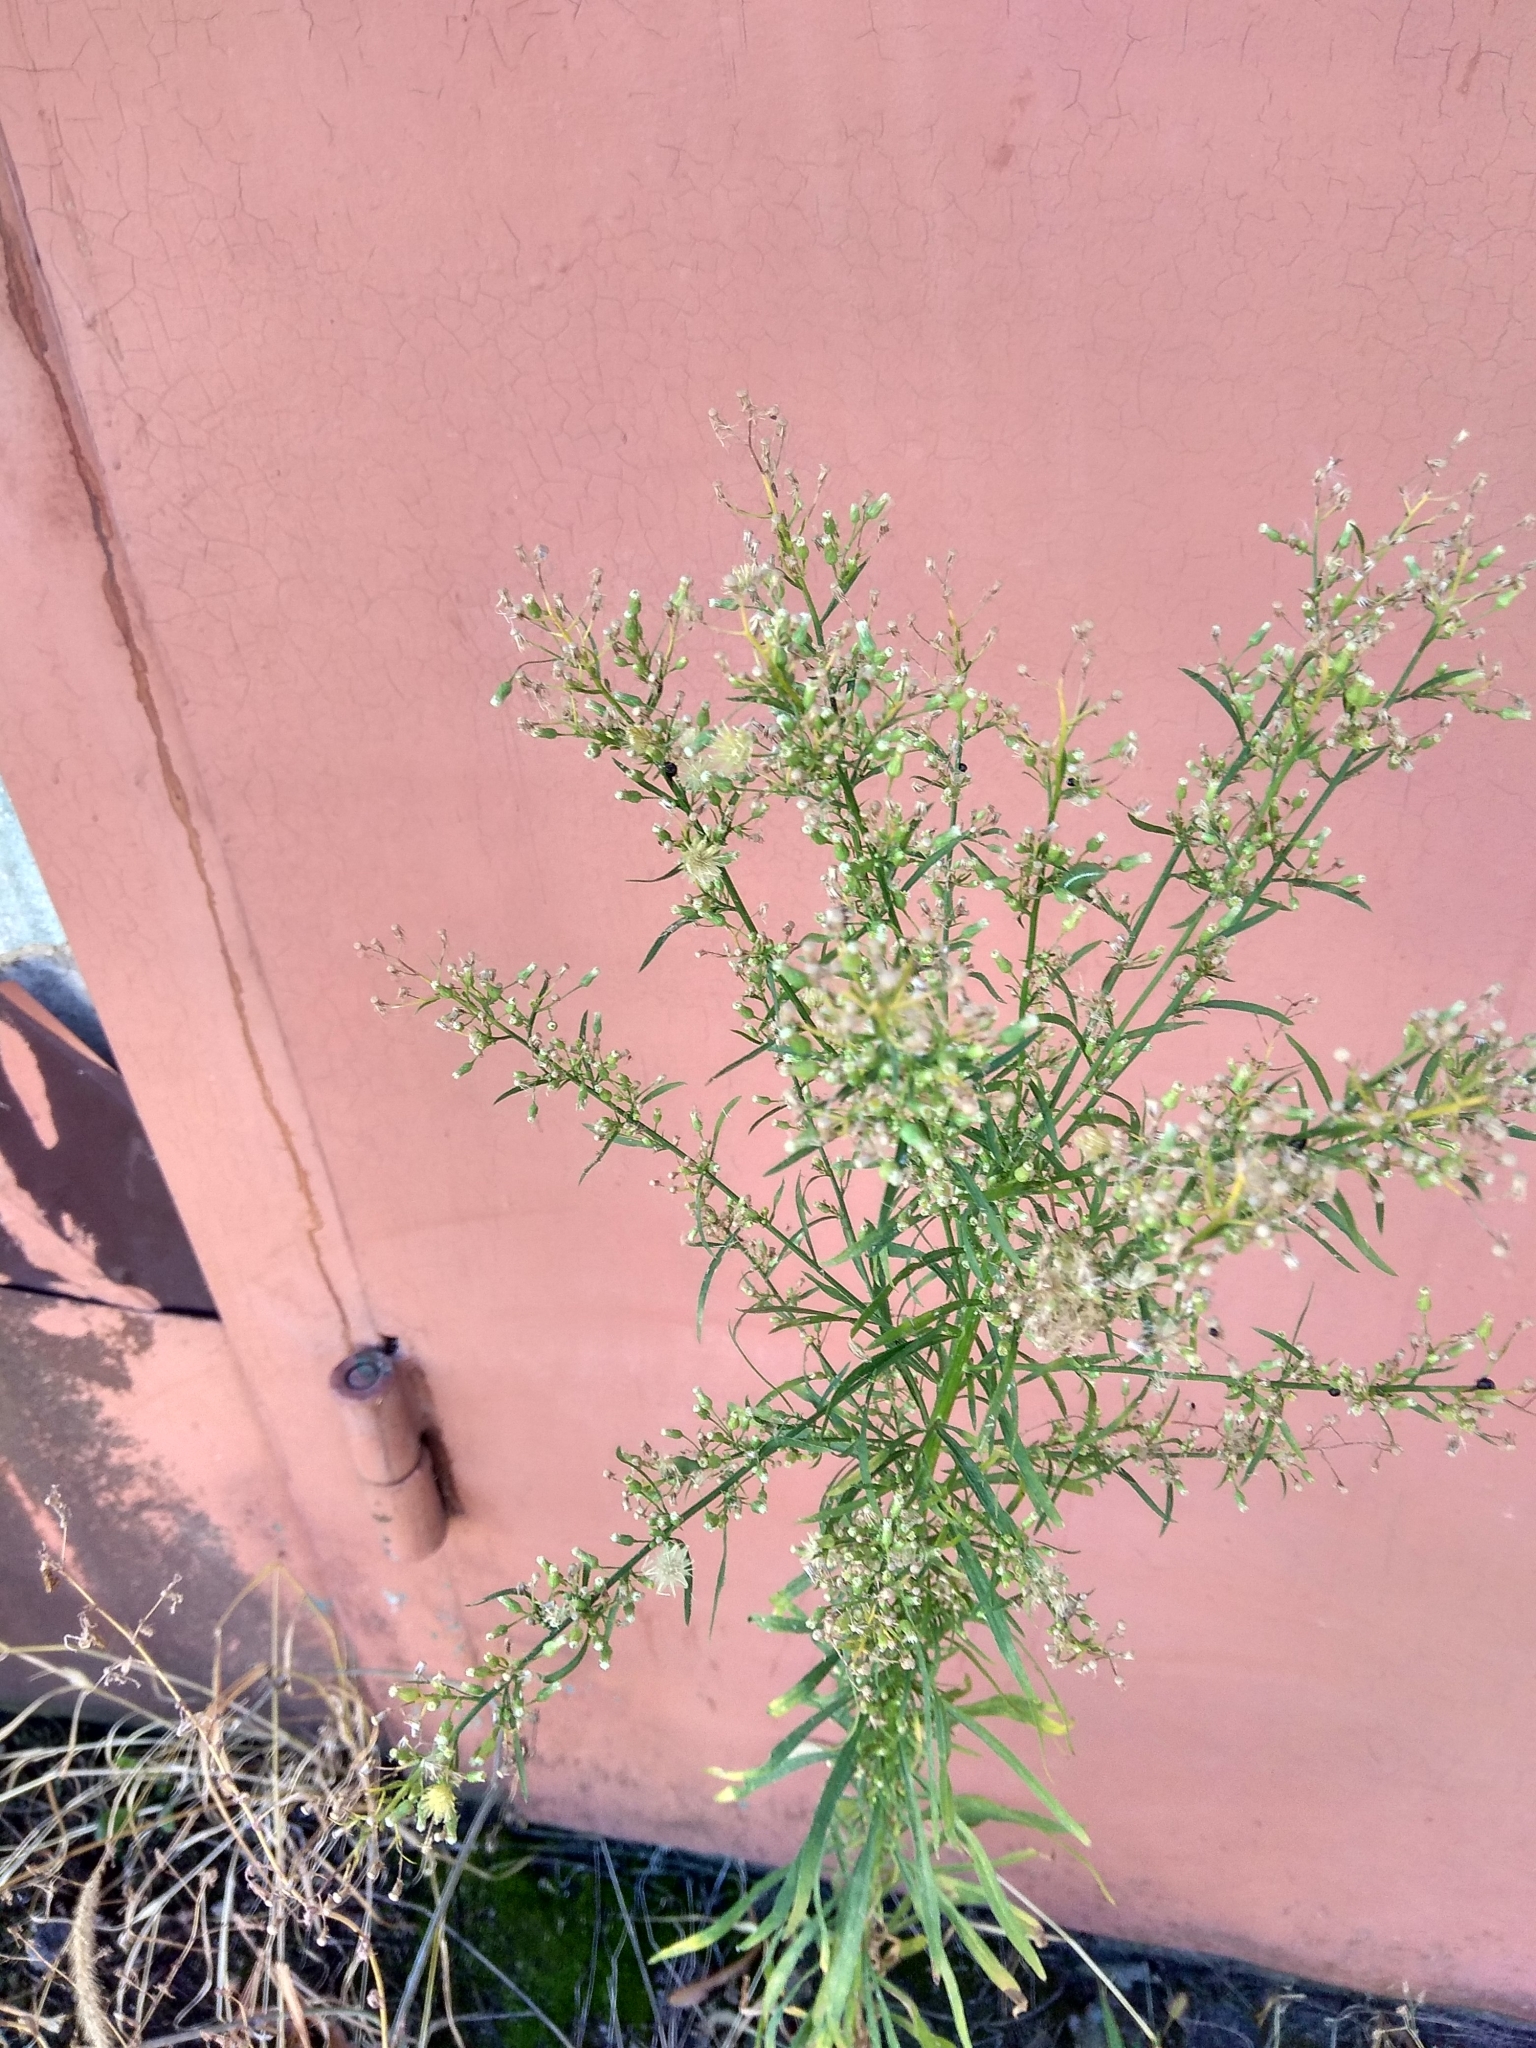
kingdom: Plantae
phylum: Tracheophyta
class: Magnoliopsida
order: Asterales
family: Asteraceae
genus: Erigeron
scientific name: Erigeron canadensis
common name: Canadian fleabane
